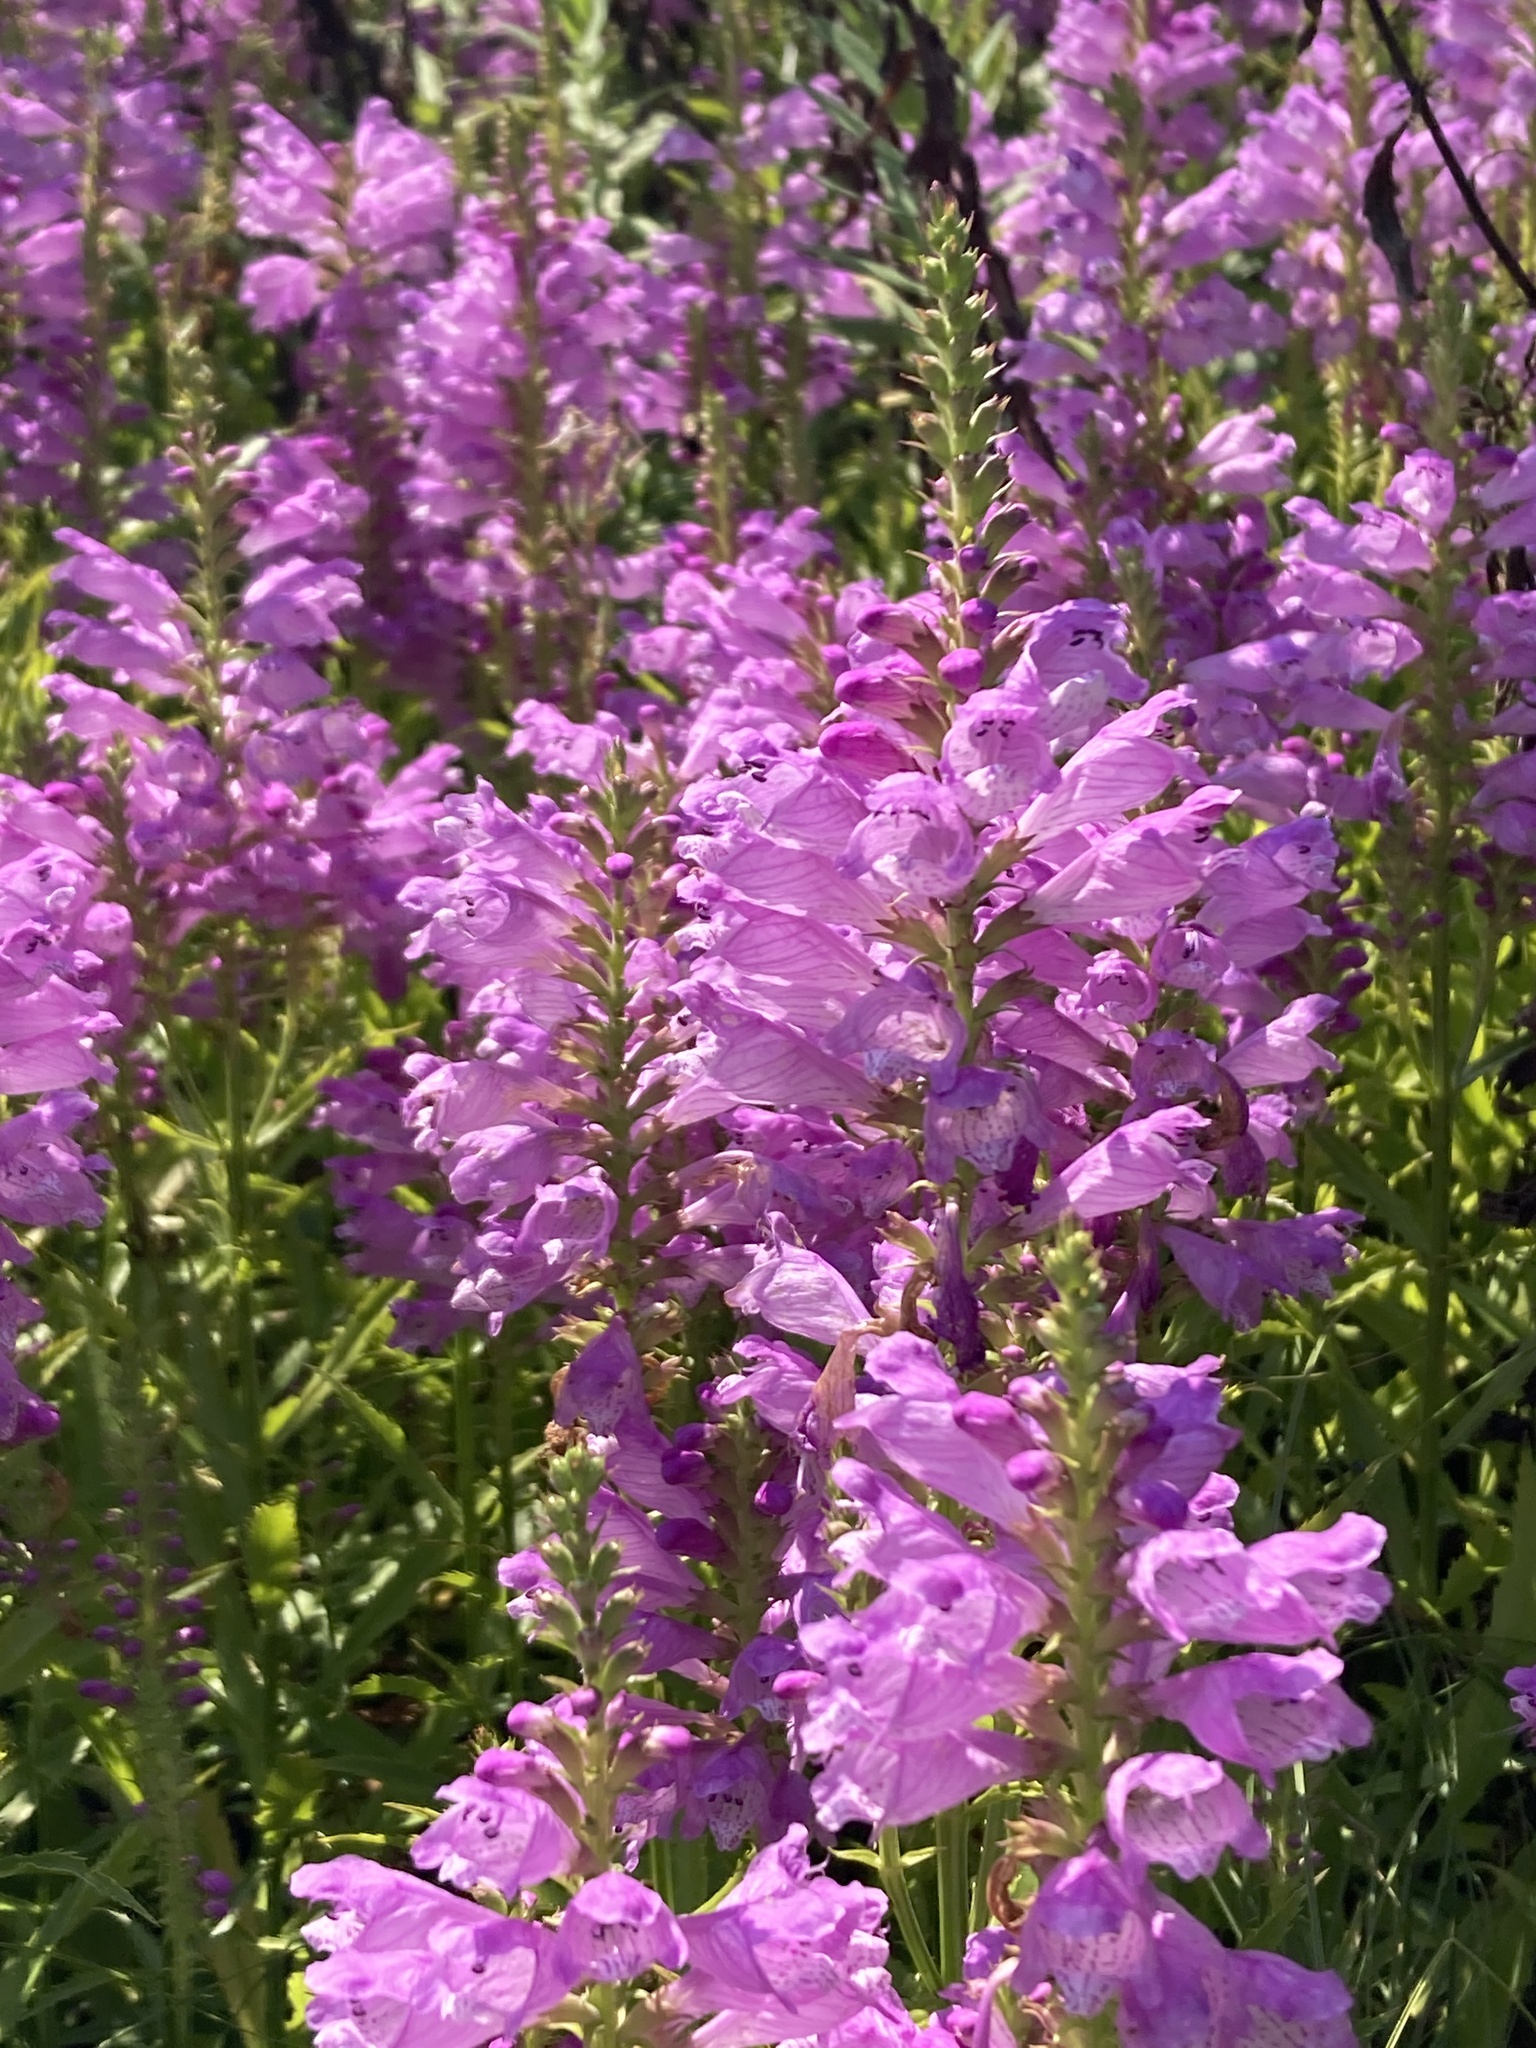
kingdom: Plantae
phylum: Tracheophyta
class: Magnoliopsida
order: Lamiales
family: Lamiaceae
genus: Physostegia
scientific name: Physostegia virginiana
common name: Obedient-plant
